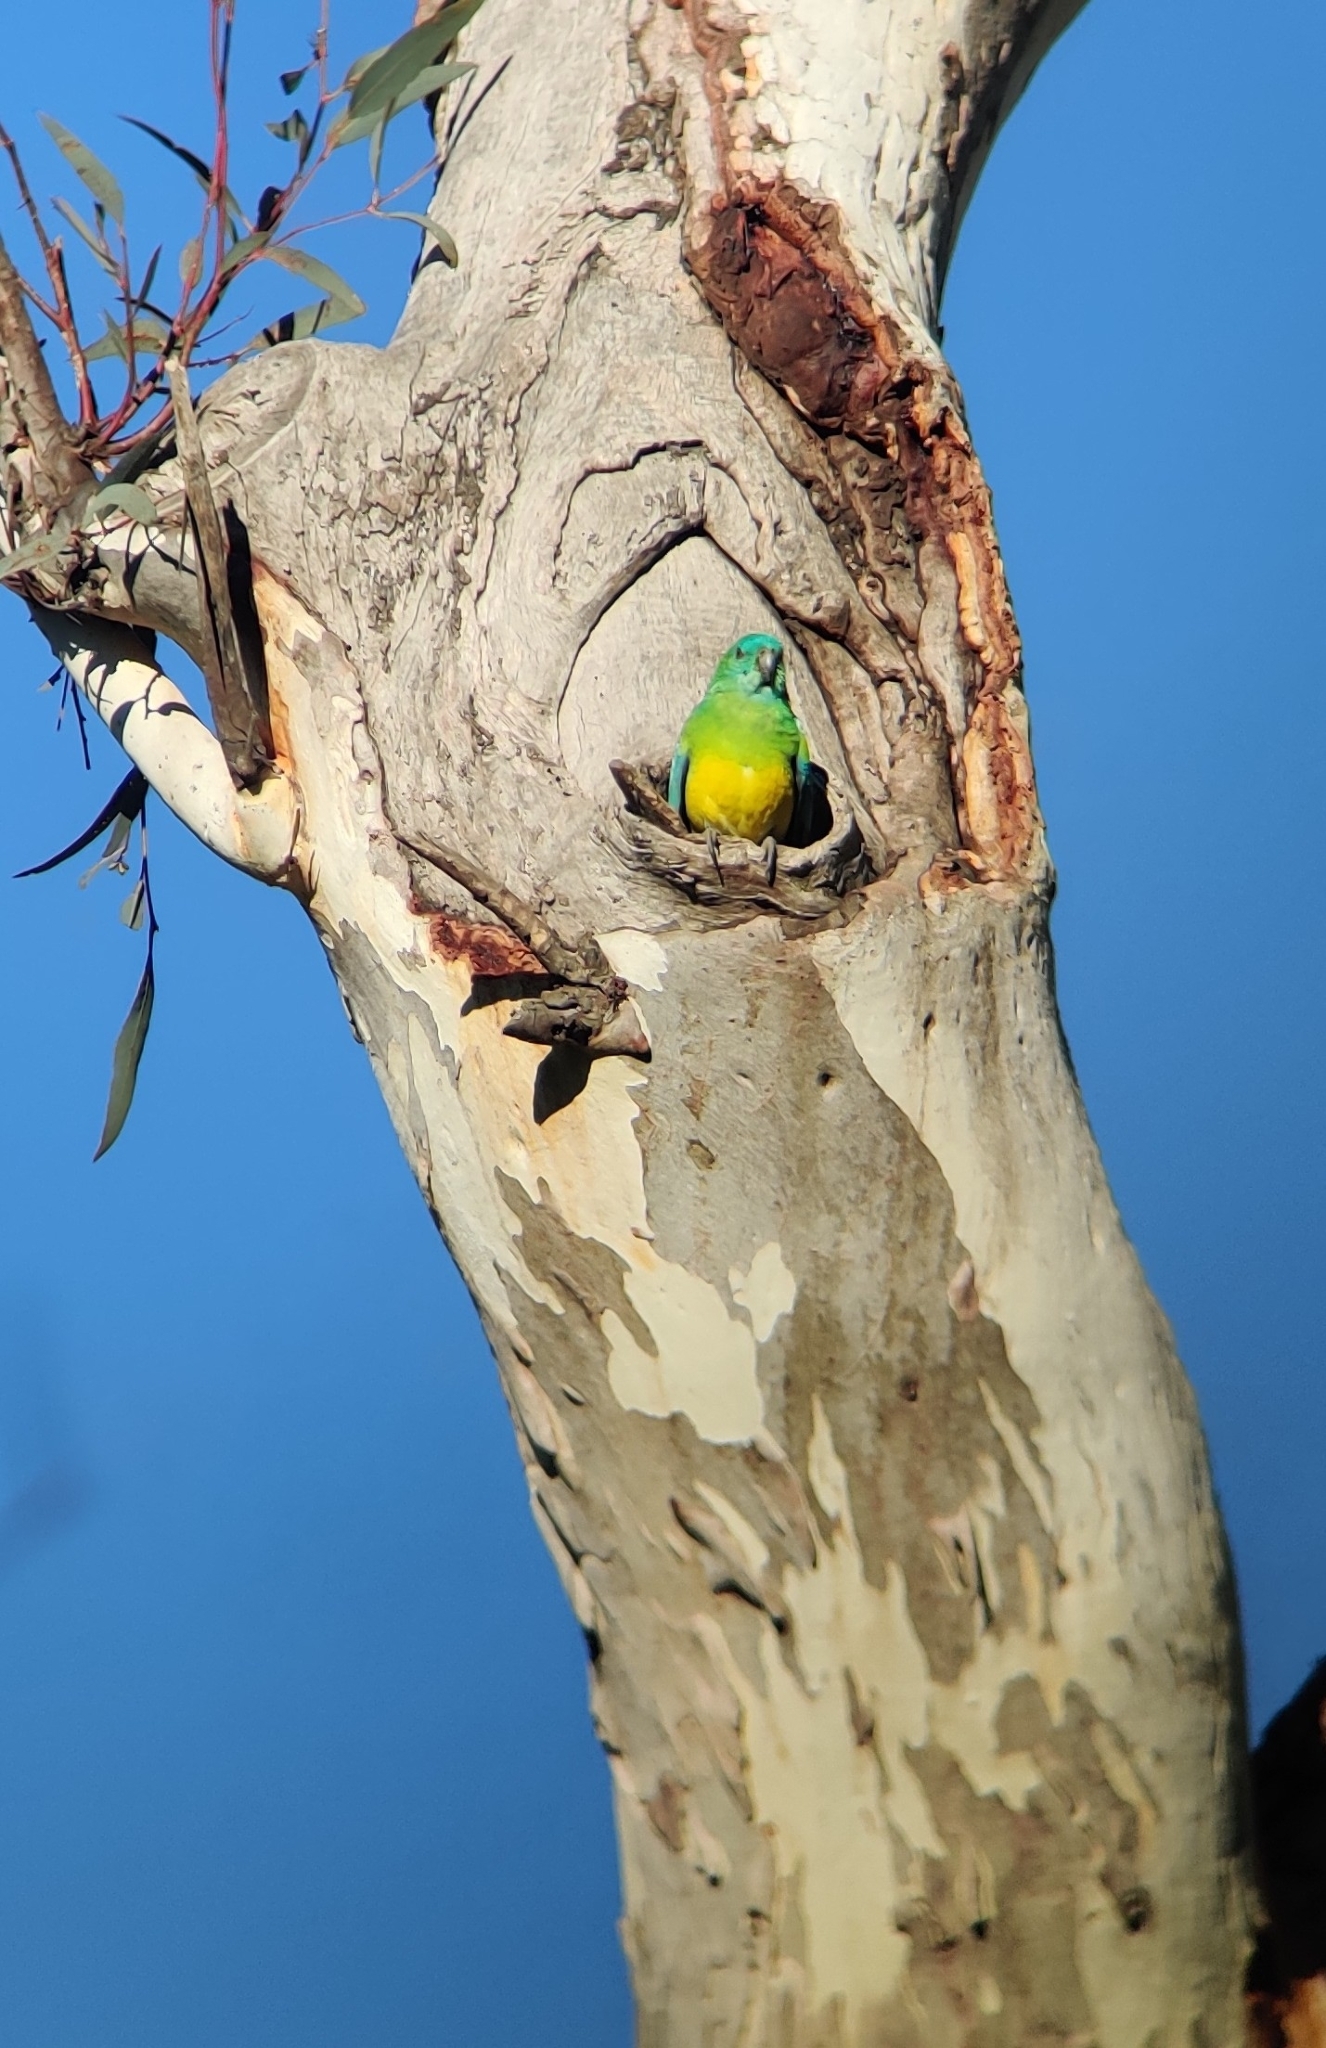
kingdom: Animalia
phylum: Chordata
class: Aves
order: Psittaciformes
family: Psittacidae
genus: Psephotus
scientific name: Psephotus haematonotus
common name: Red-rumped parrot
